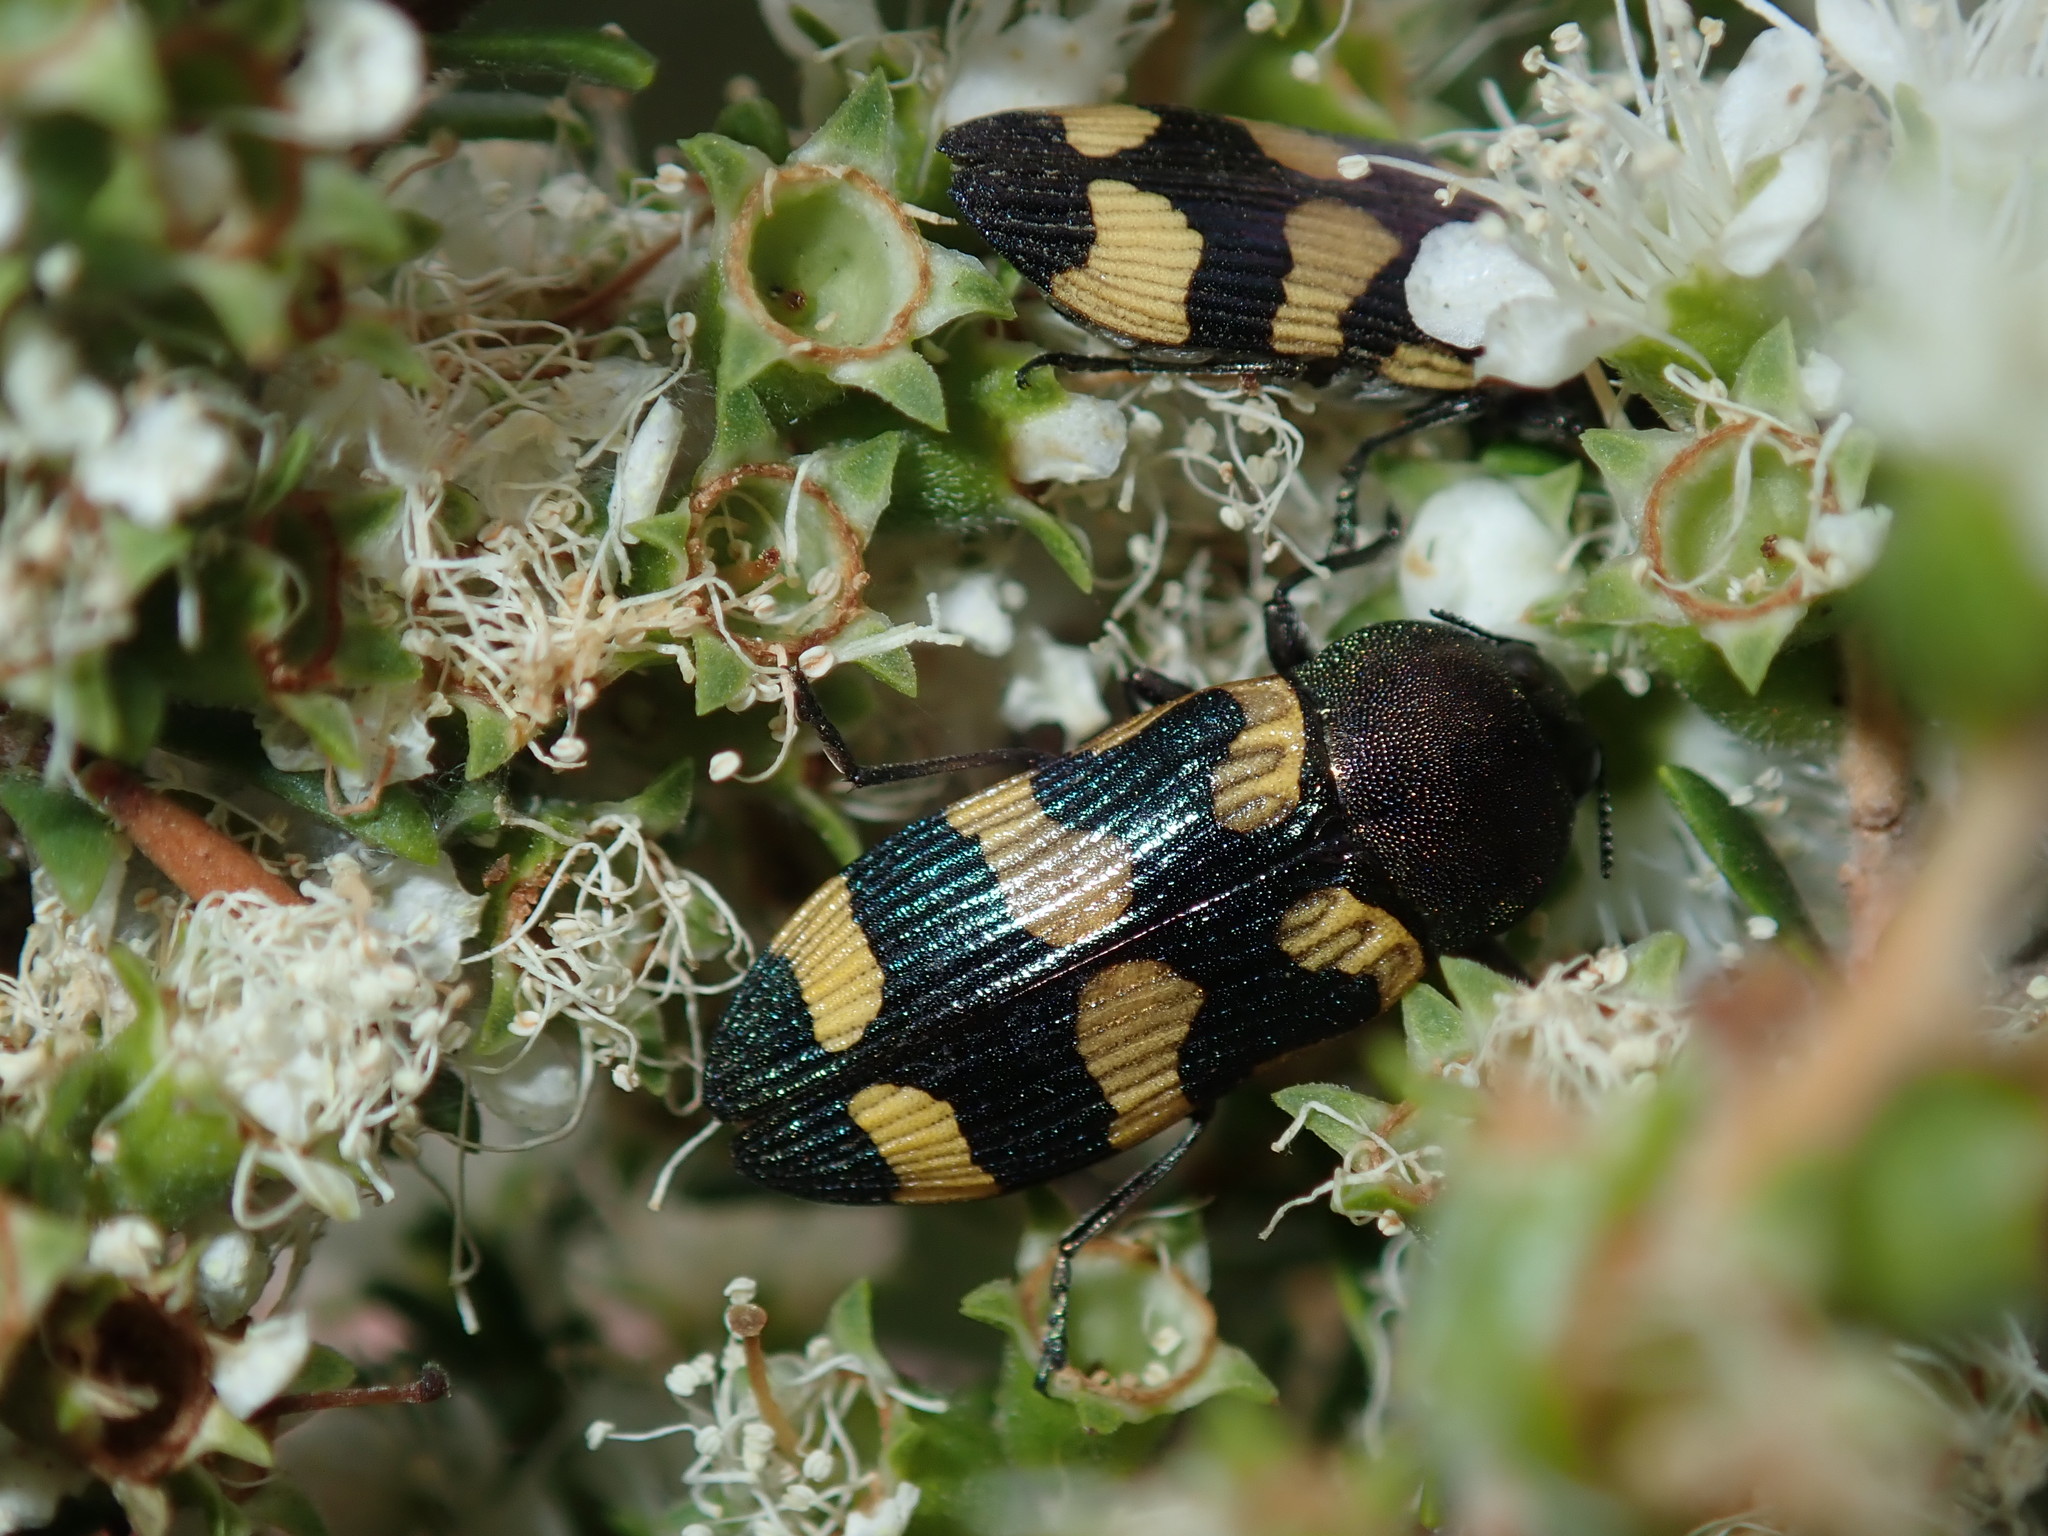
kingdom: Animalia
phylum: Arthropoda
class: Insecta
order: Coleoptera
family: Buprestidae
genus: Castiarina
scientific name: Castiarina inconspicua
